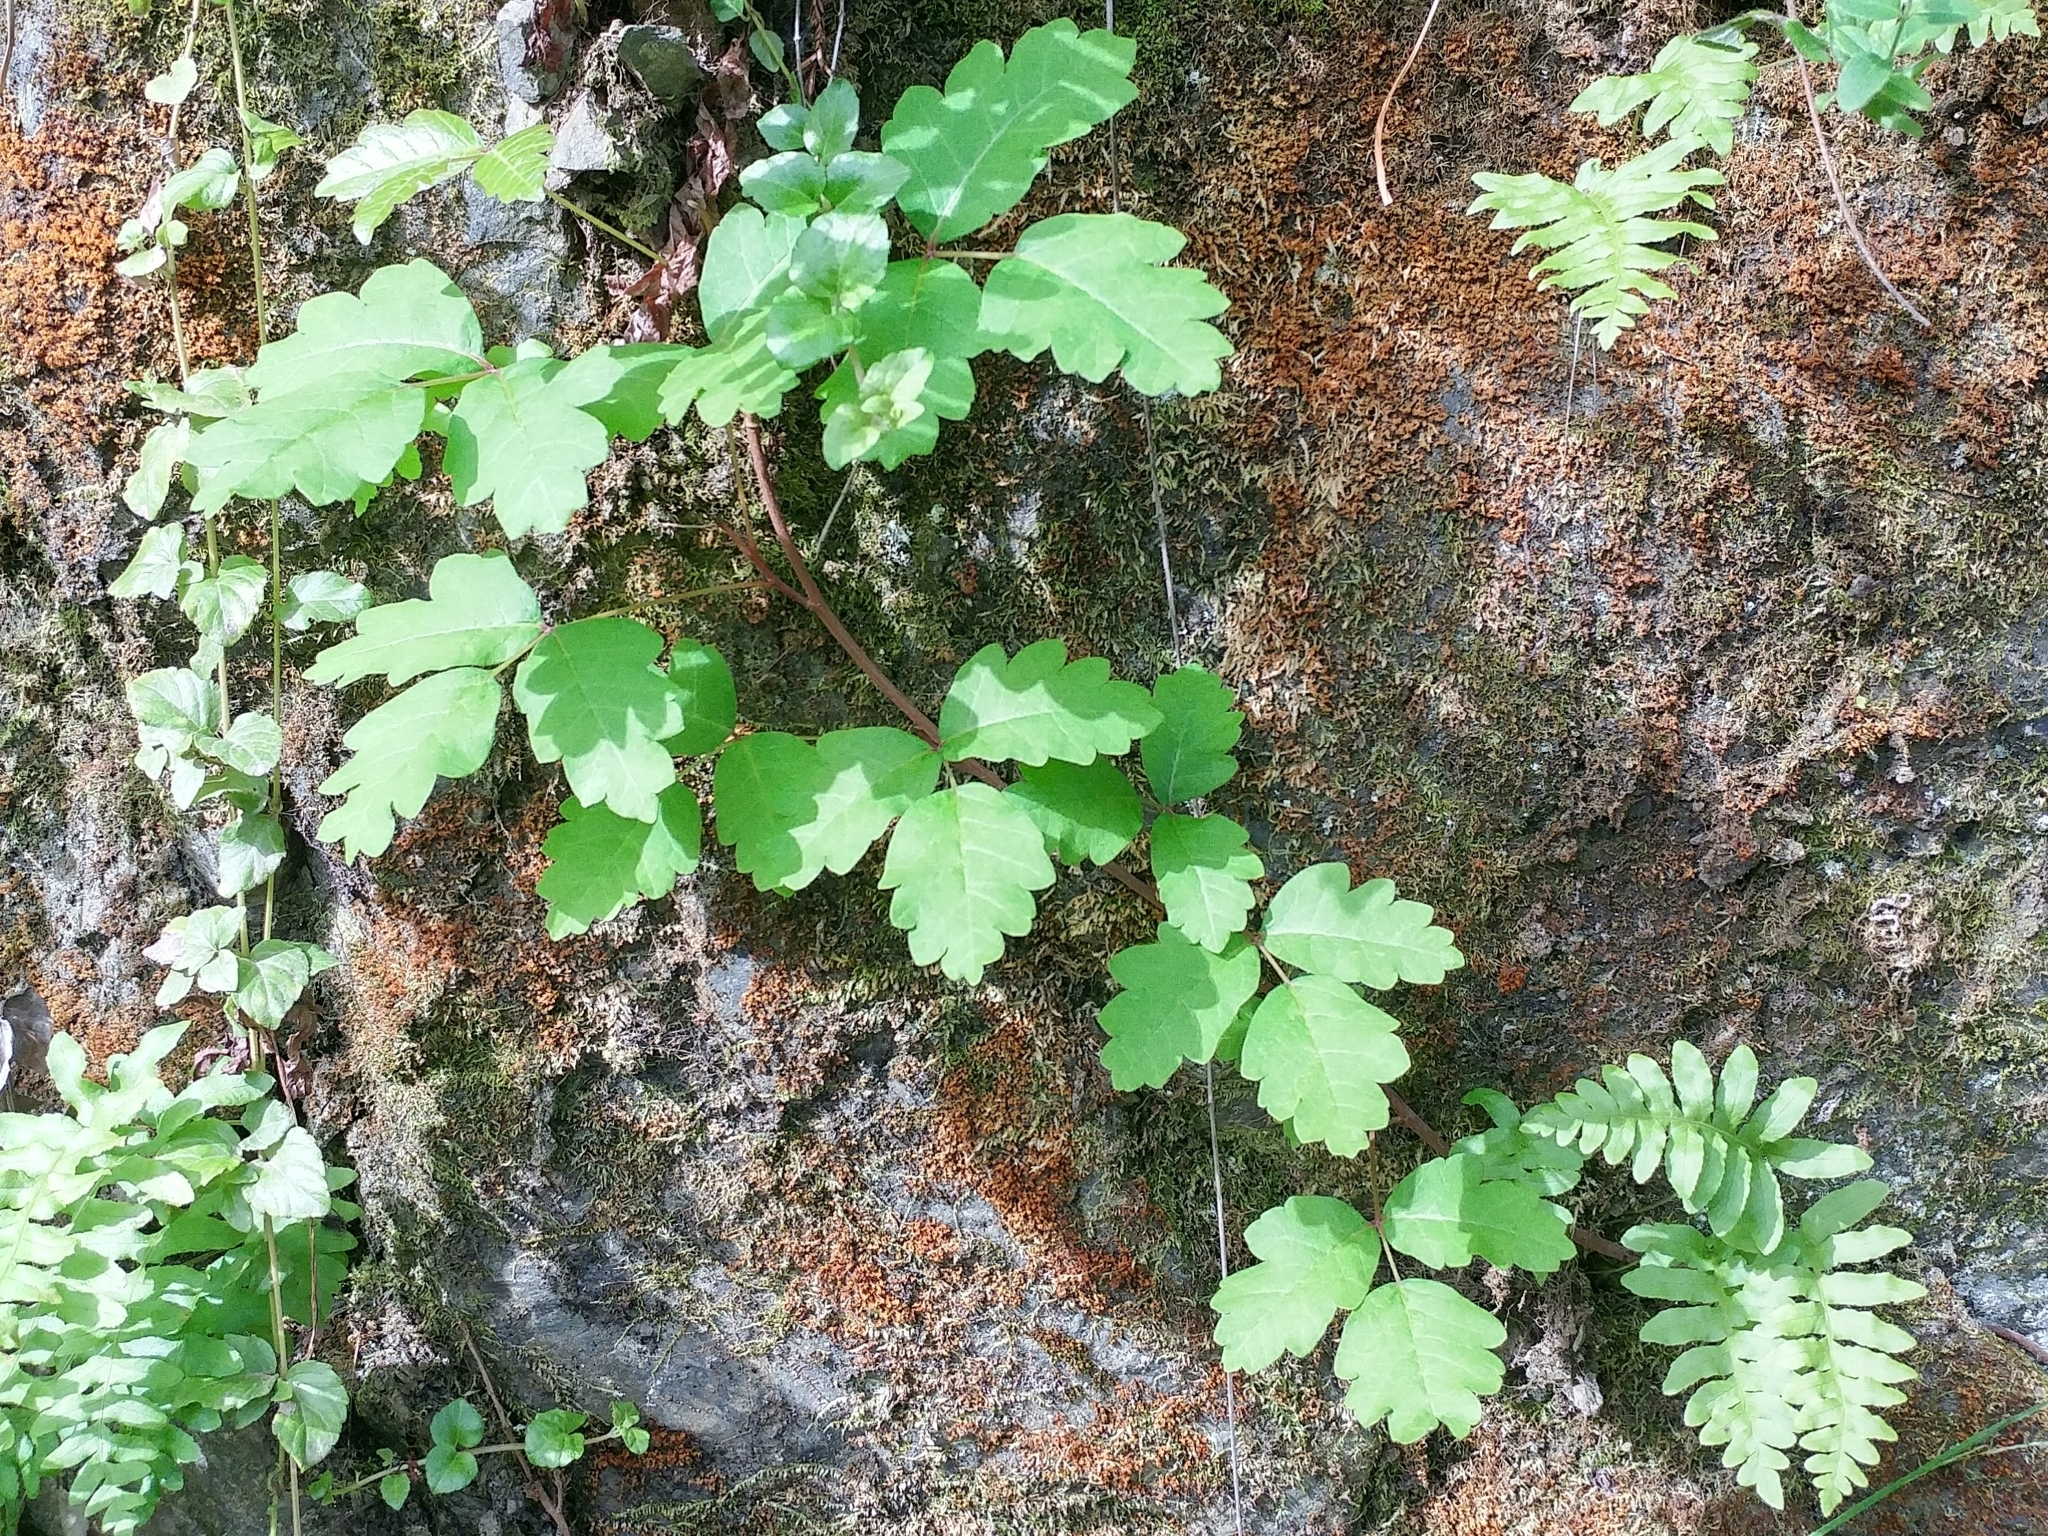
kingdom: Plantae
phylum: Tracheophyta
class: Magnoliopsida
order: Sapindales
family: Anacardiaceae
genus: Toxicodendron
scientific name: Toxicodendron diversilobum
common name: Pacific poison-oak
